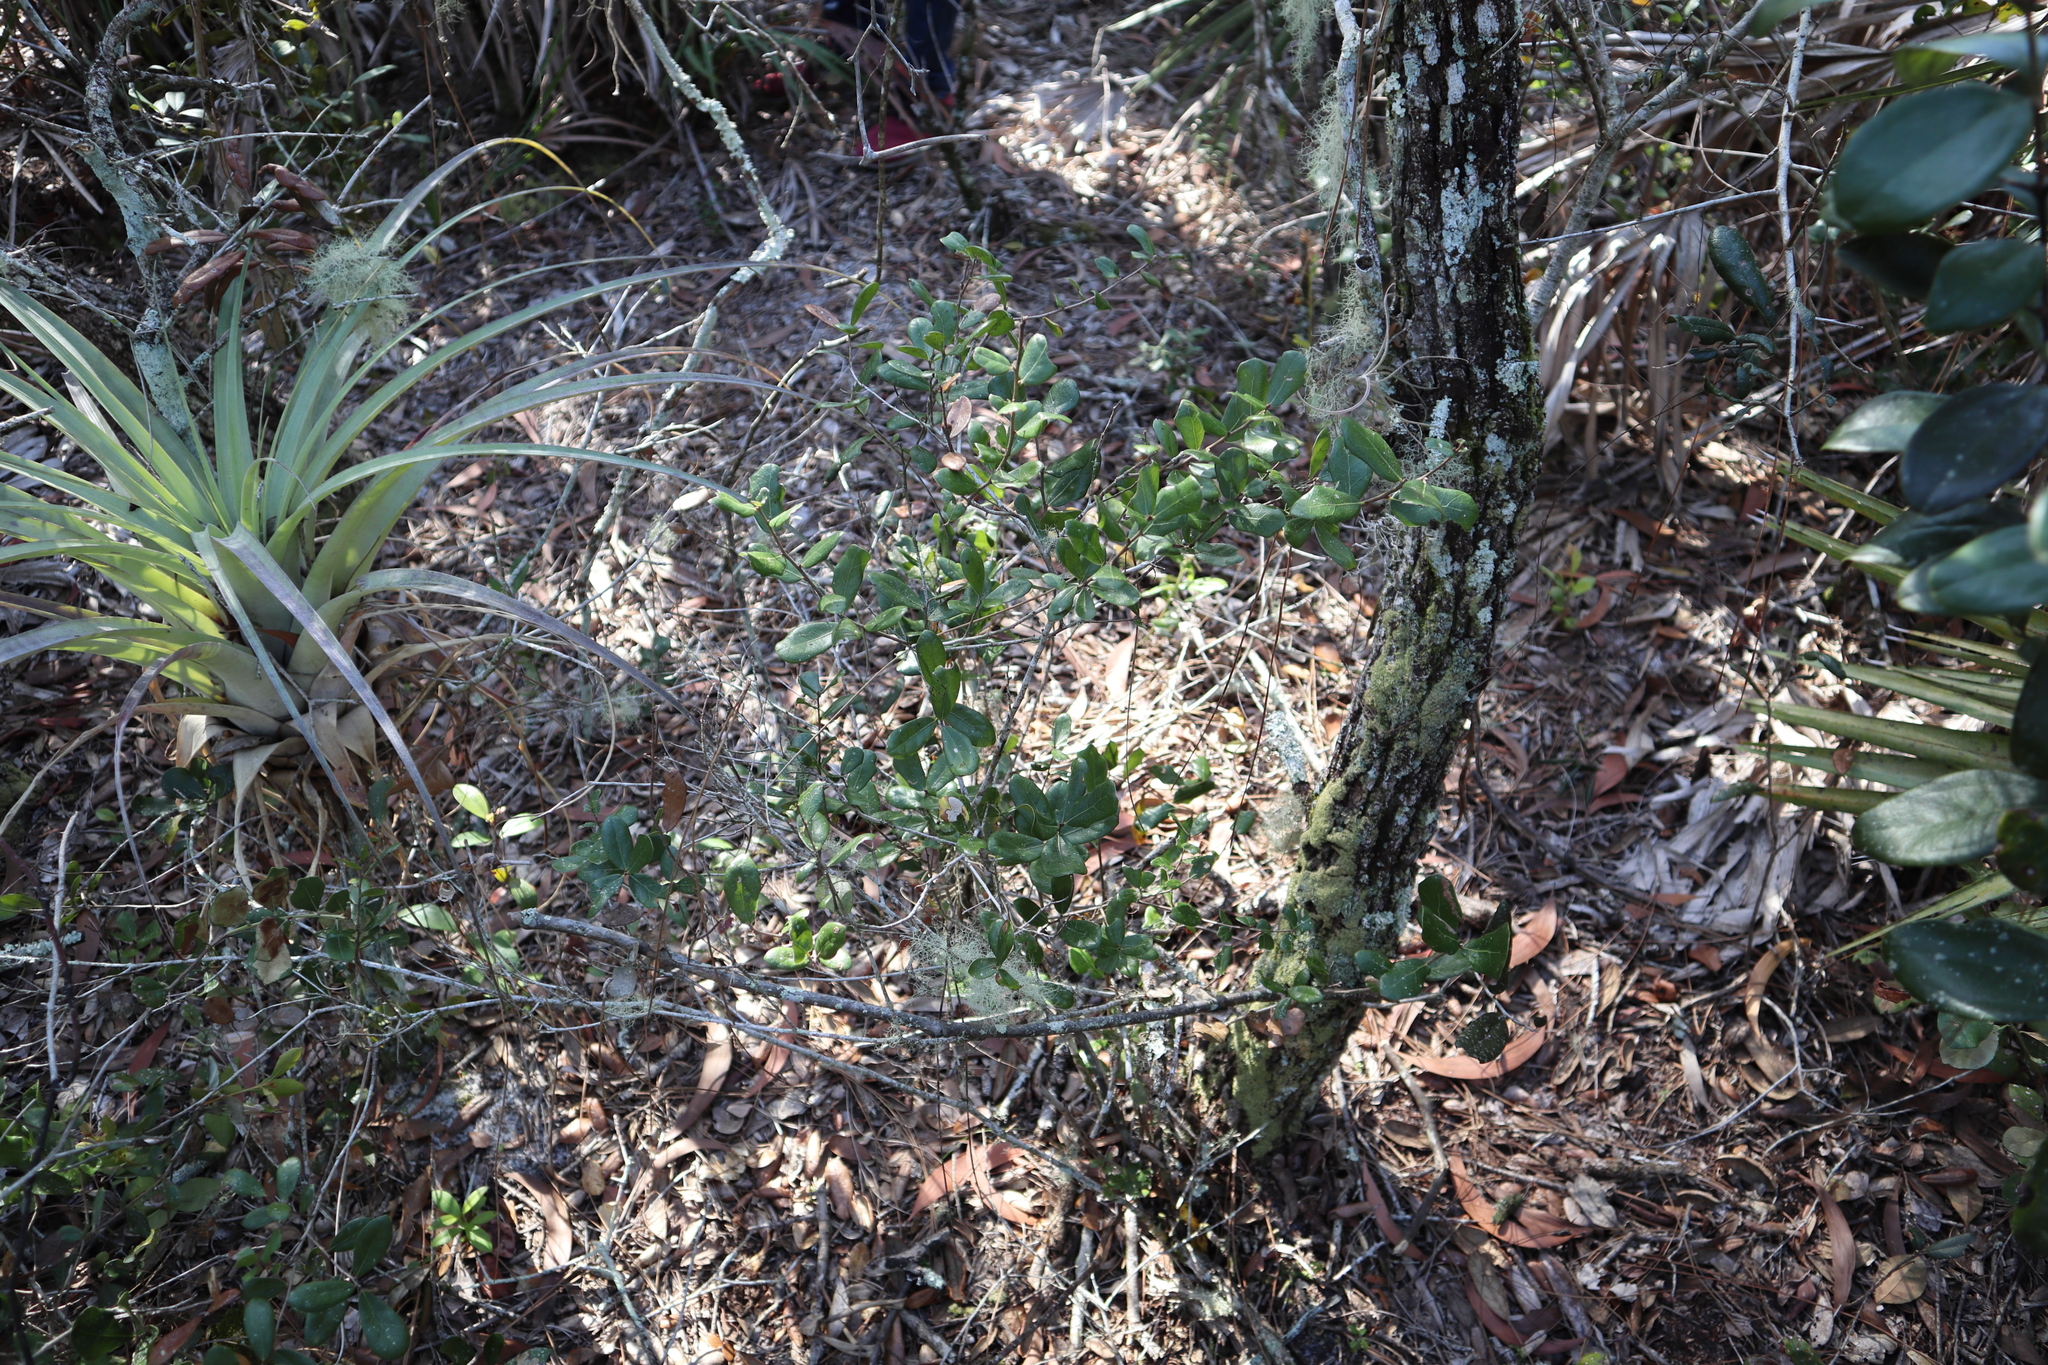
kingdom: Plantae
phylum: Tracheophyta
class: Magnoliopsida
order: Fagales
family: Fagaceae
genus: Quercus
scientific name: Quercus myrtifolia
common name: Myrtle oak
